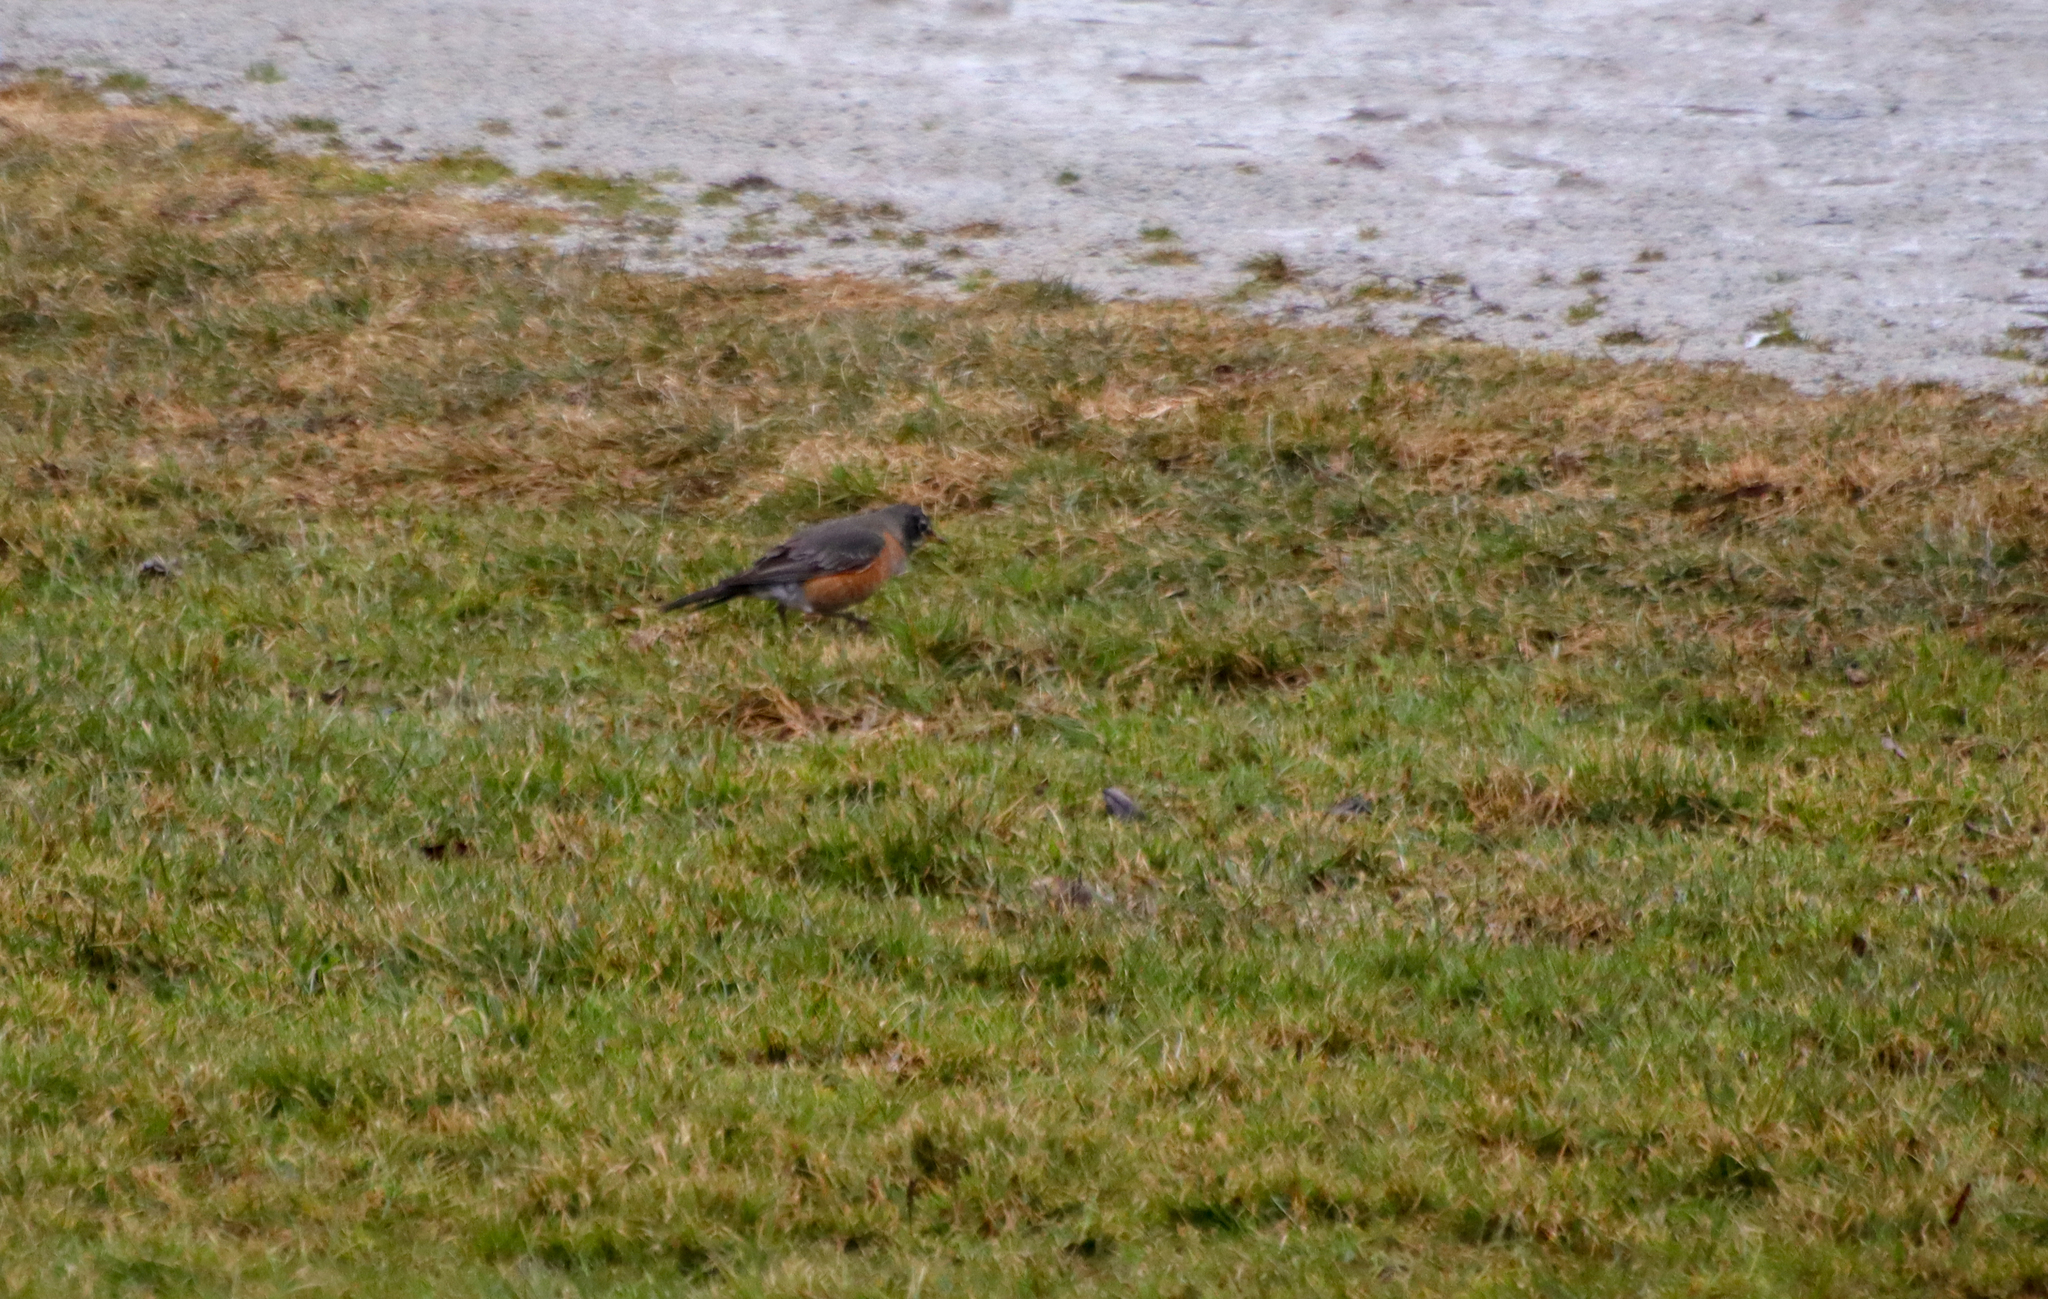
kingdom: Animalia
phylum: Chordata
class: Aves
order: Passeriformes
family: Turdidae
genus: Turdus
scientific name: Turdus migratorius
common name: American robin
